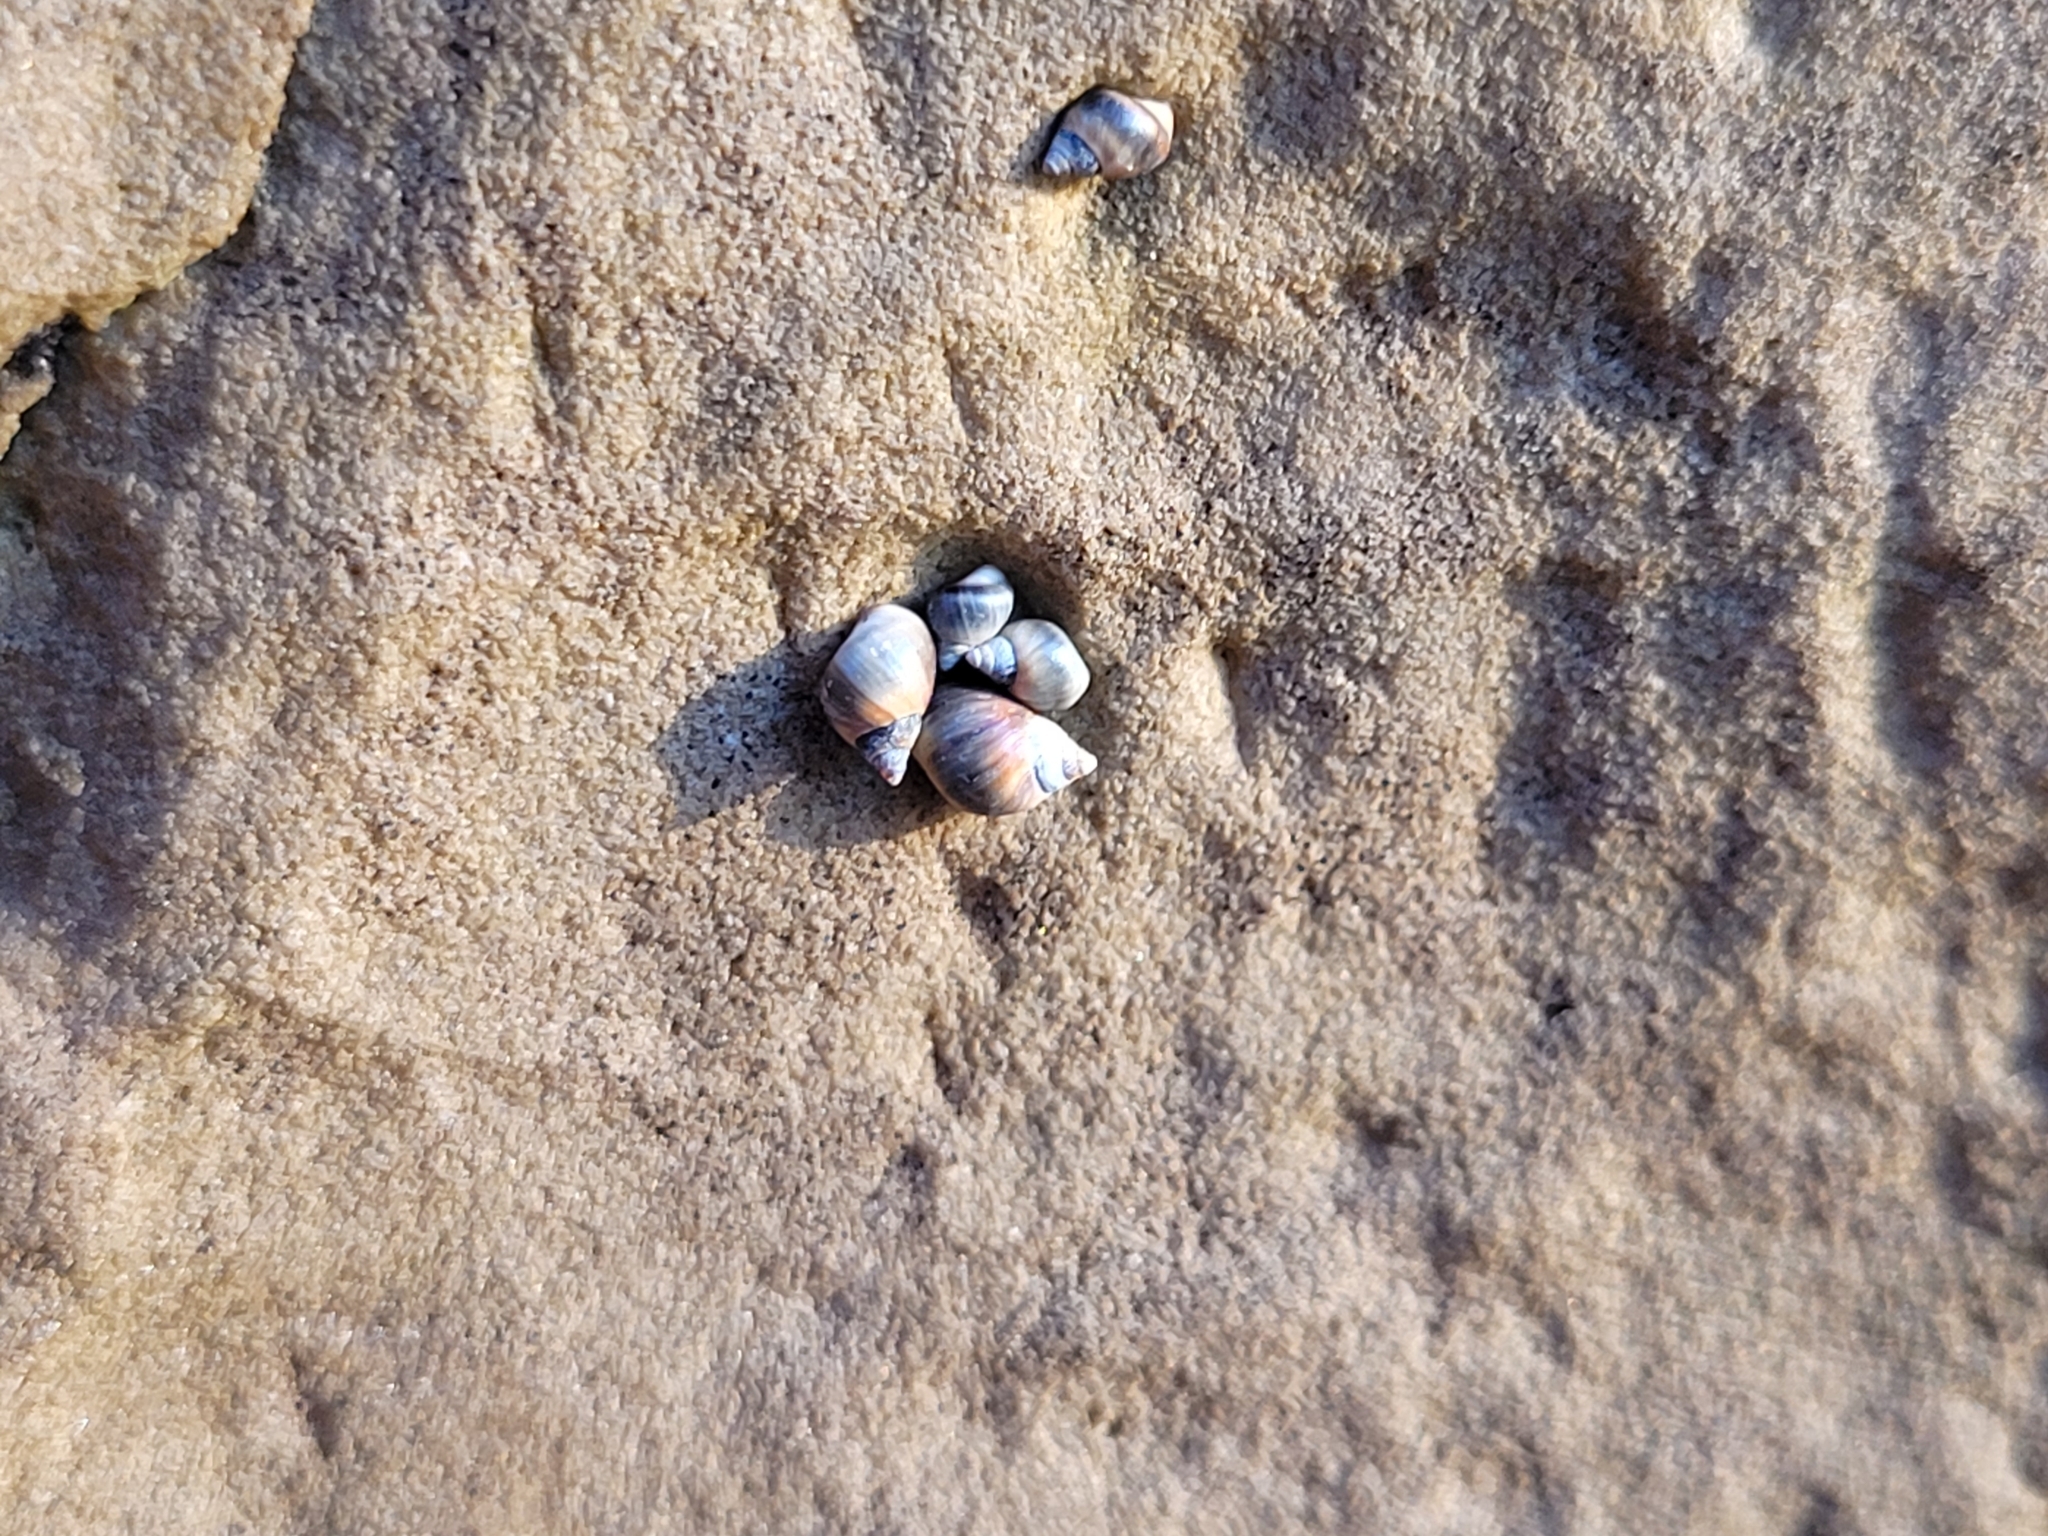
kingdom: Animalia
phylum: Mollusca
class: Gastropoda
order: Littorinimorpha
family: Littorinidae
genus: Melarhaphe
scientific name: Melarhaphe neritoides
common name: Small periwinkle
